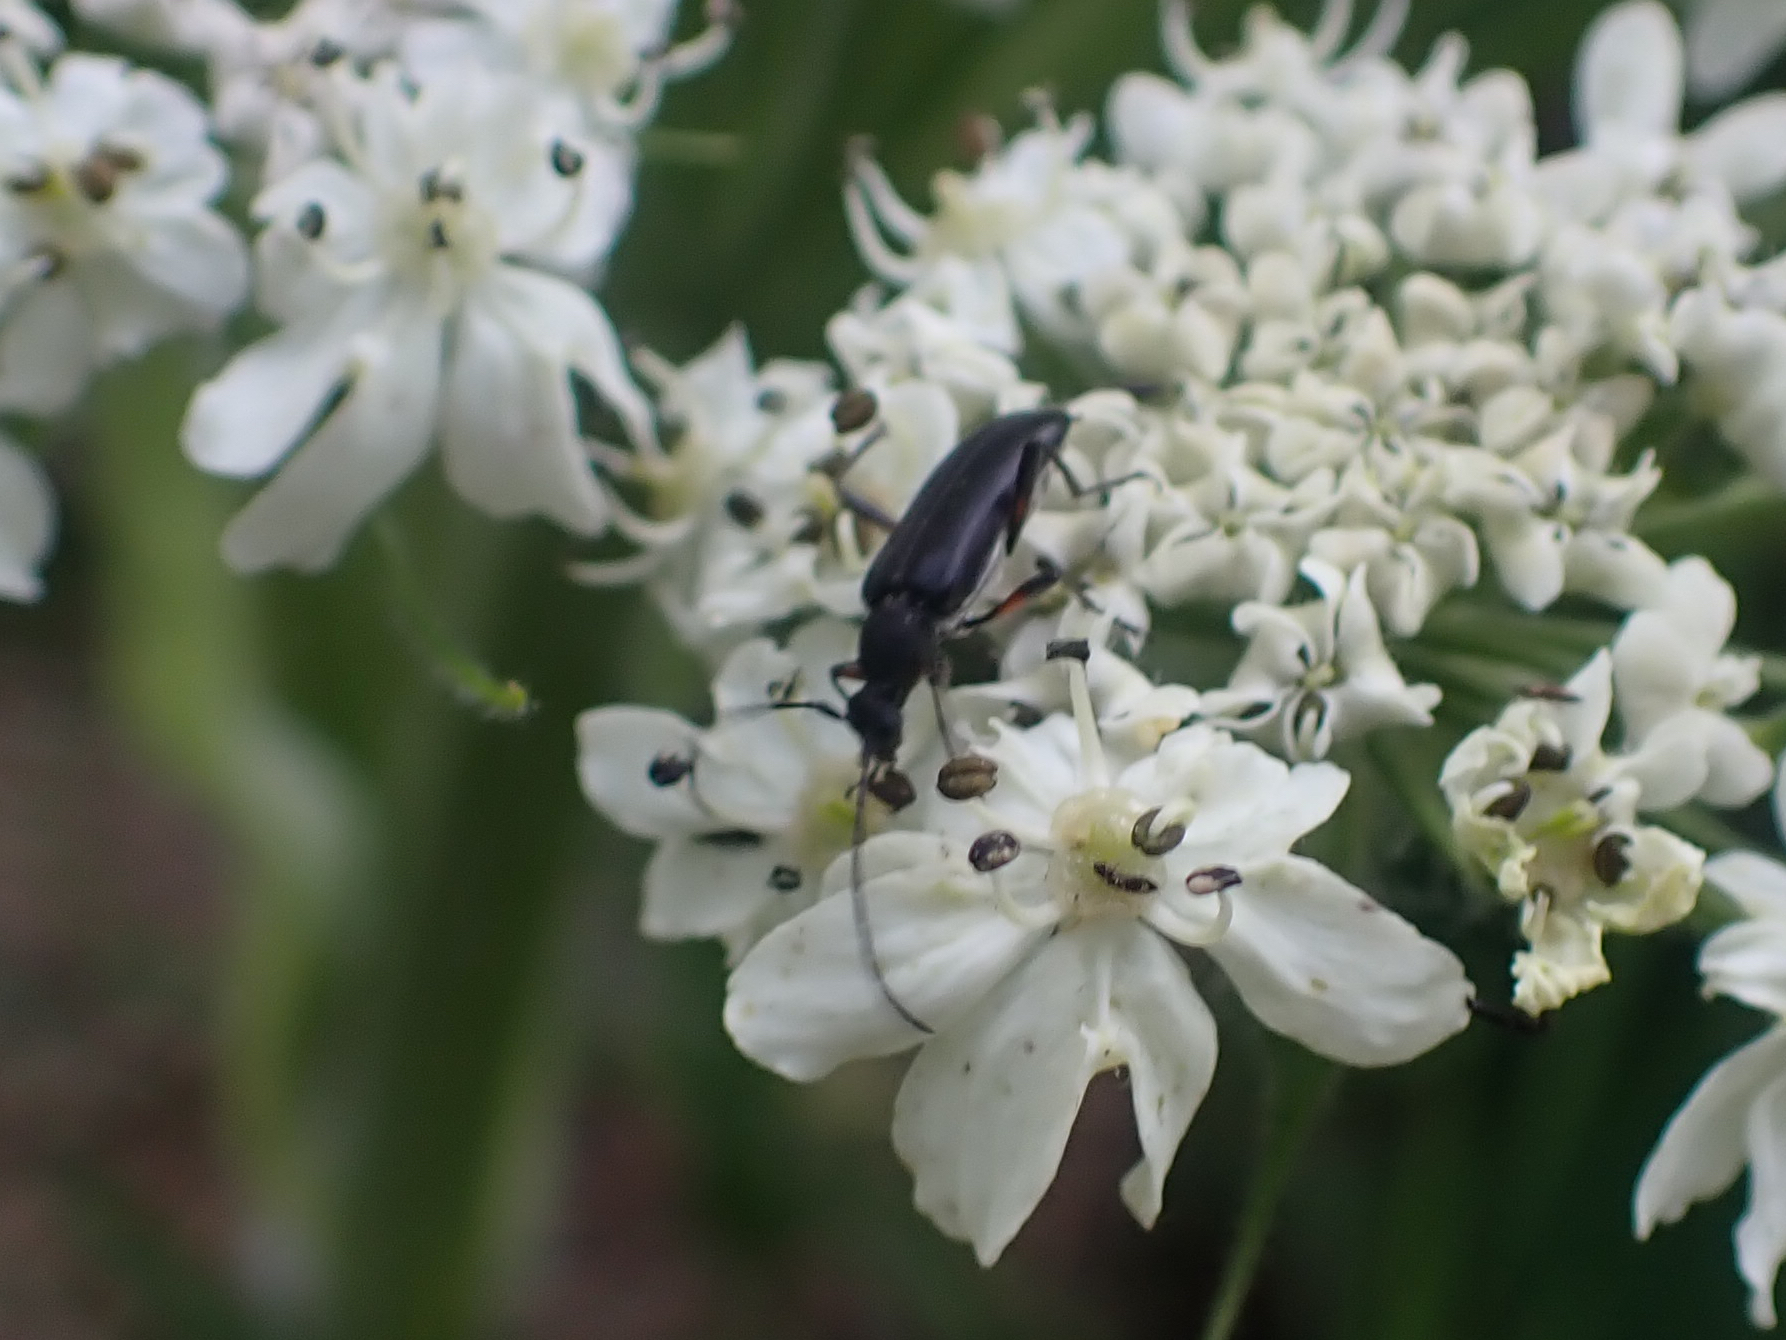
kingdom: Animalia
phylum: Arthropoda
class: Insecta
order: Coleoptera
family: Cerambycidae
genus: Grammoptera
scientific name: Grammoptera subargentata
